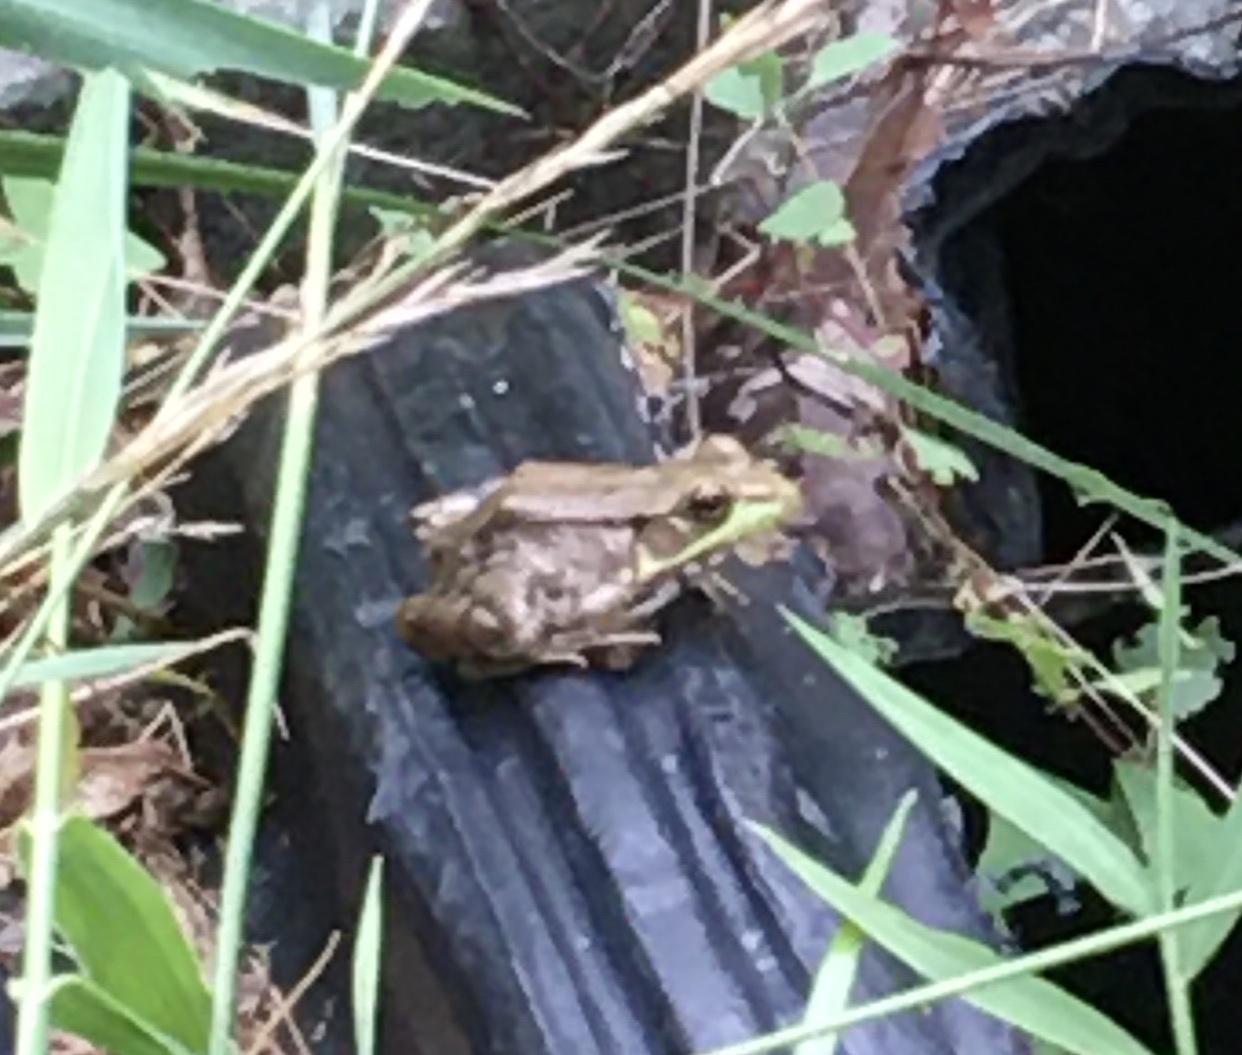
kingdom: Animalia
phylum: Chordata
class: Amphibia
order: Anura
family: Ranidae
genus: Lithobates
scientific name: Lithobates clamitans
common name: Green frog
